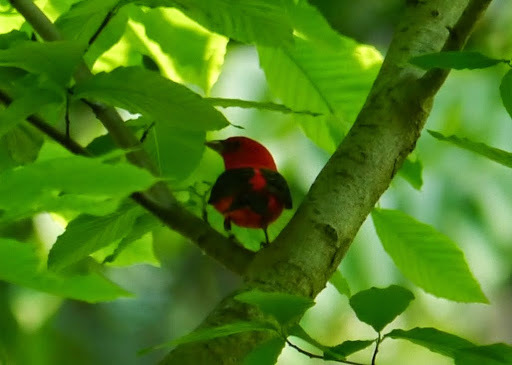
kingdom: Animalia
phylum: Chordata
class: Aves
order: Passeriformes
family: Cardinalidae
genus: Piranga
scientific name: Piranga olivacea
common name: Scarlet tanager
